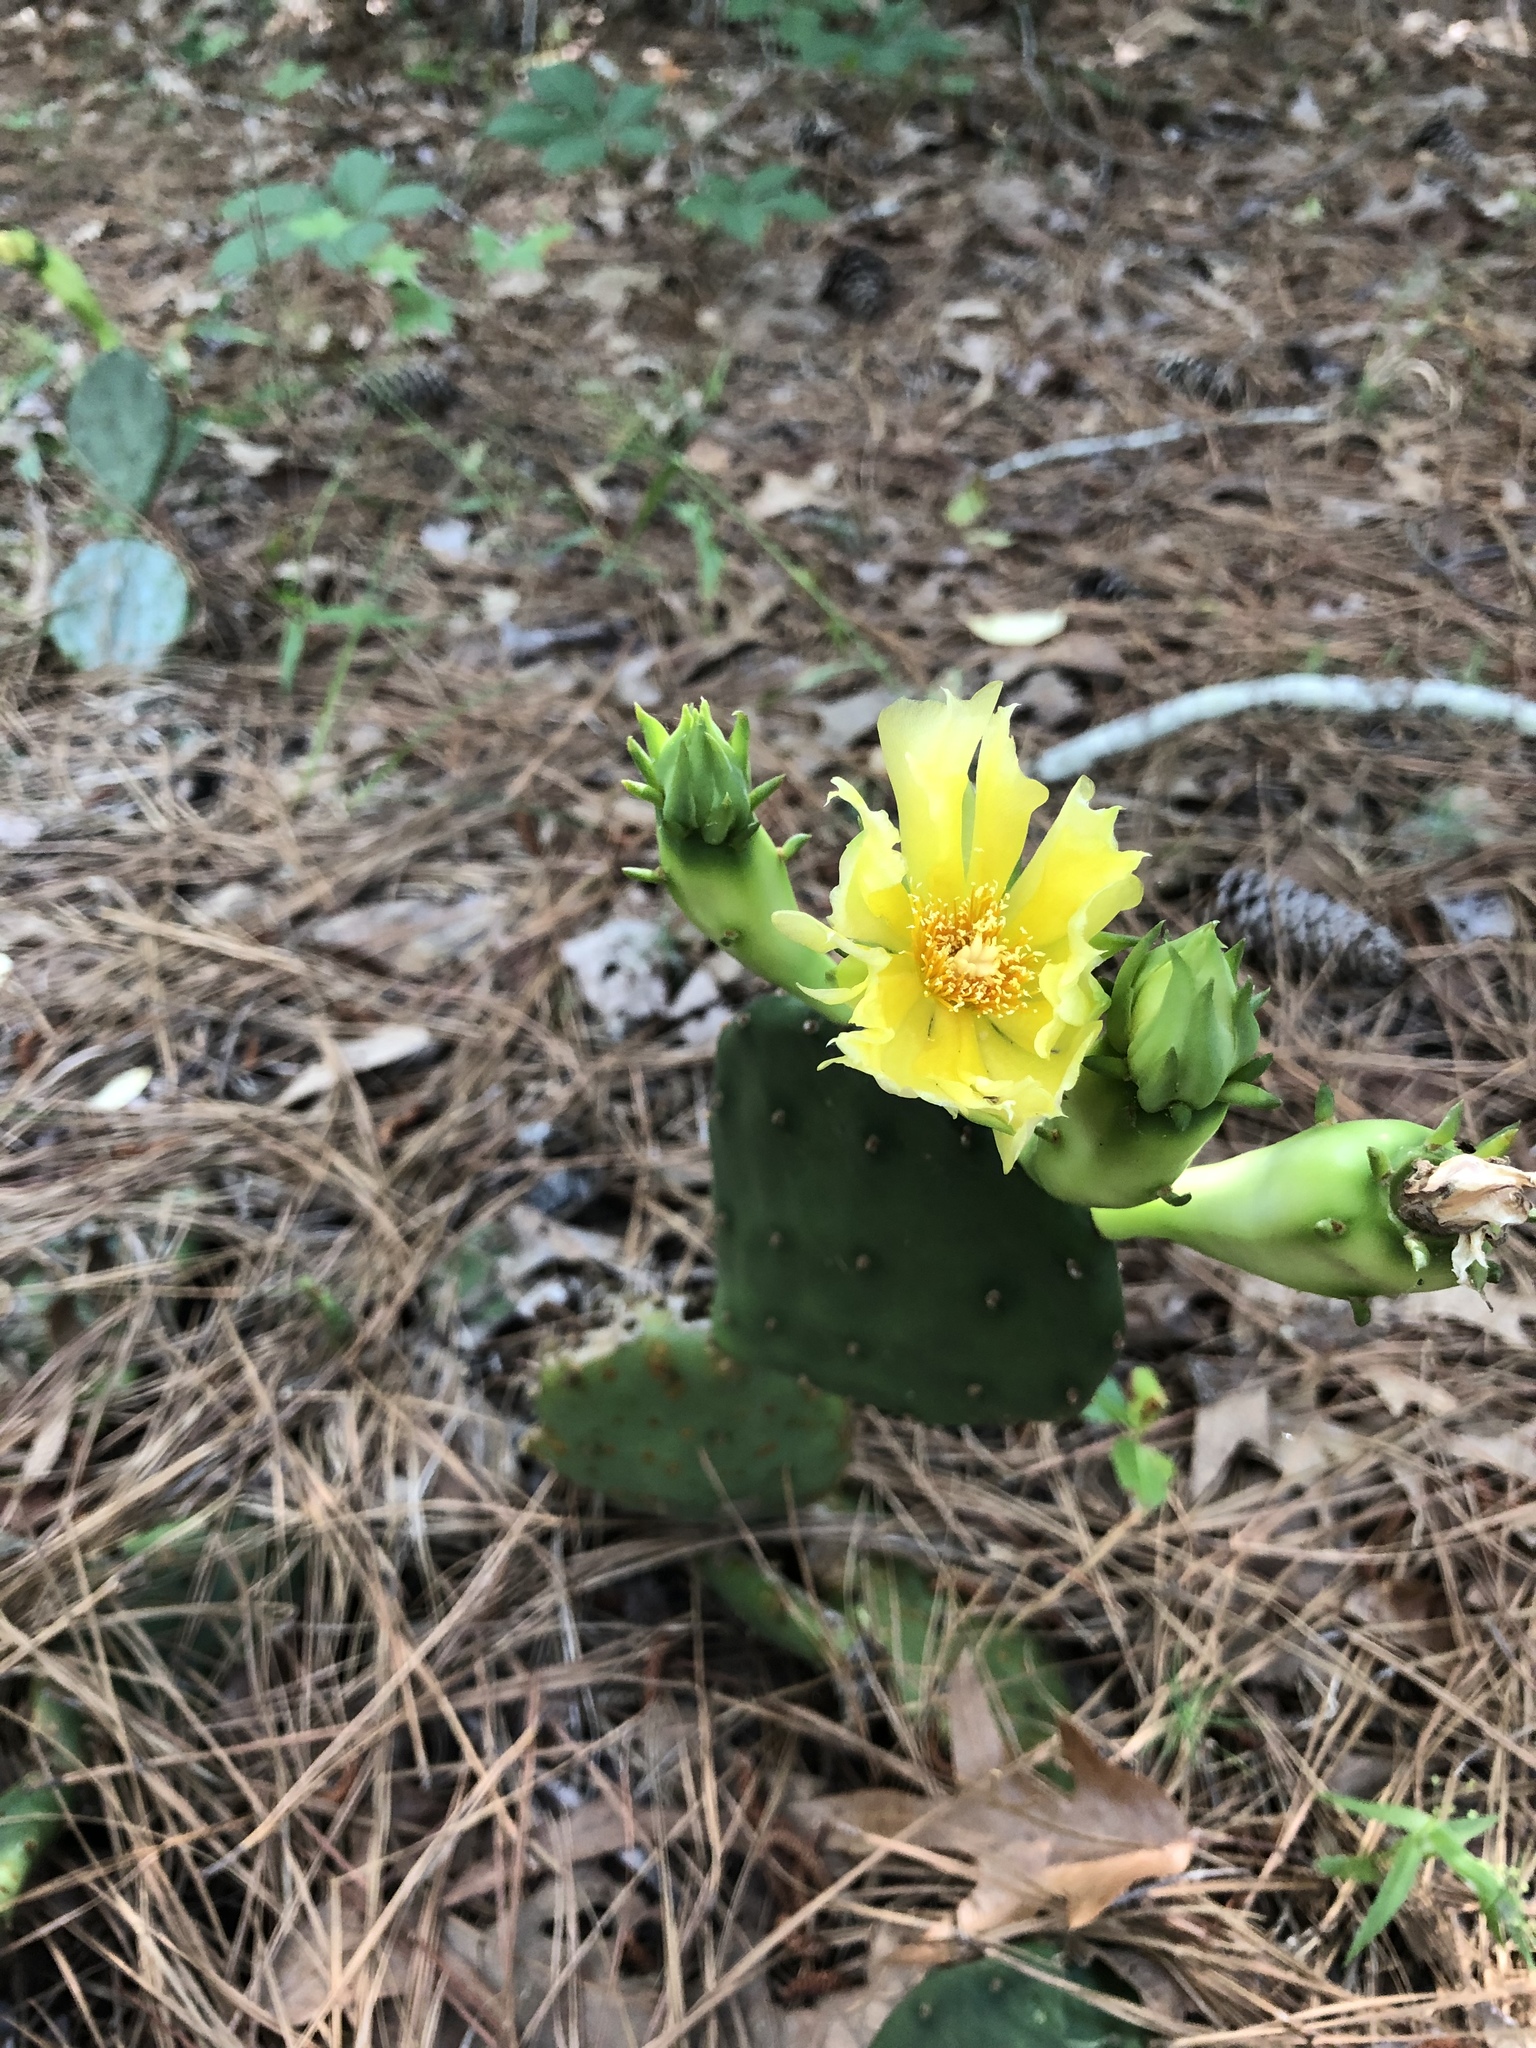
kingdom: Plantae
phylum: Tracheophyta
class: Magnoliopsida
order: Caryophyllales
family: Cactaceae
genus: Opuntia
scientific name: Opuntia humifusa
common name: Eastern prickly-pear
